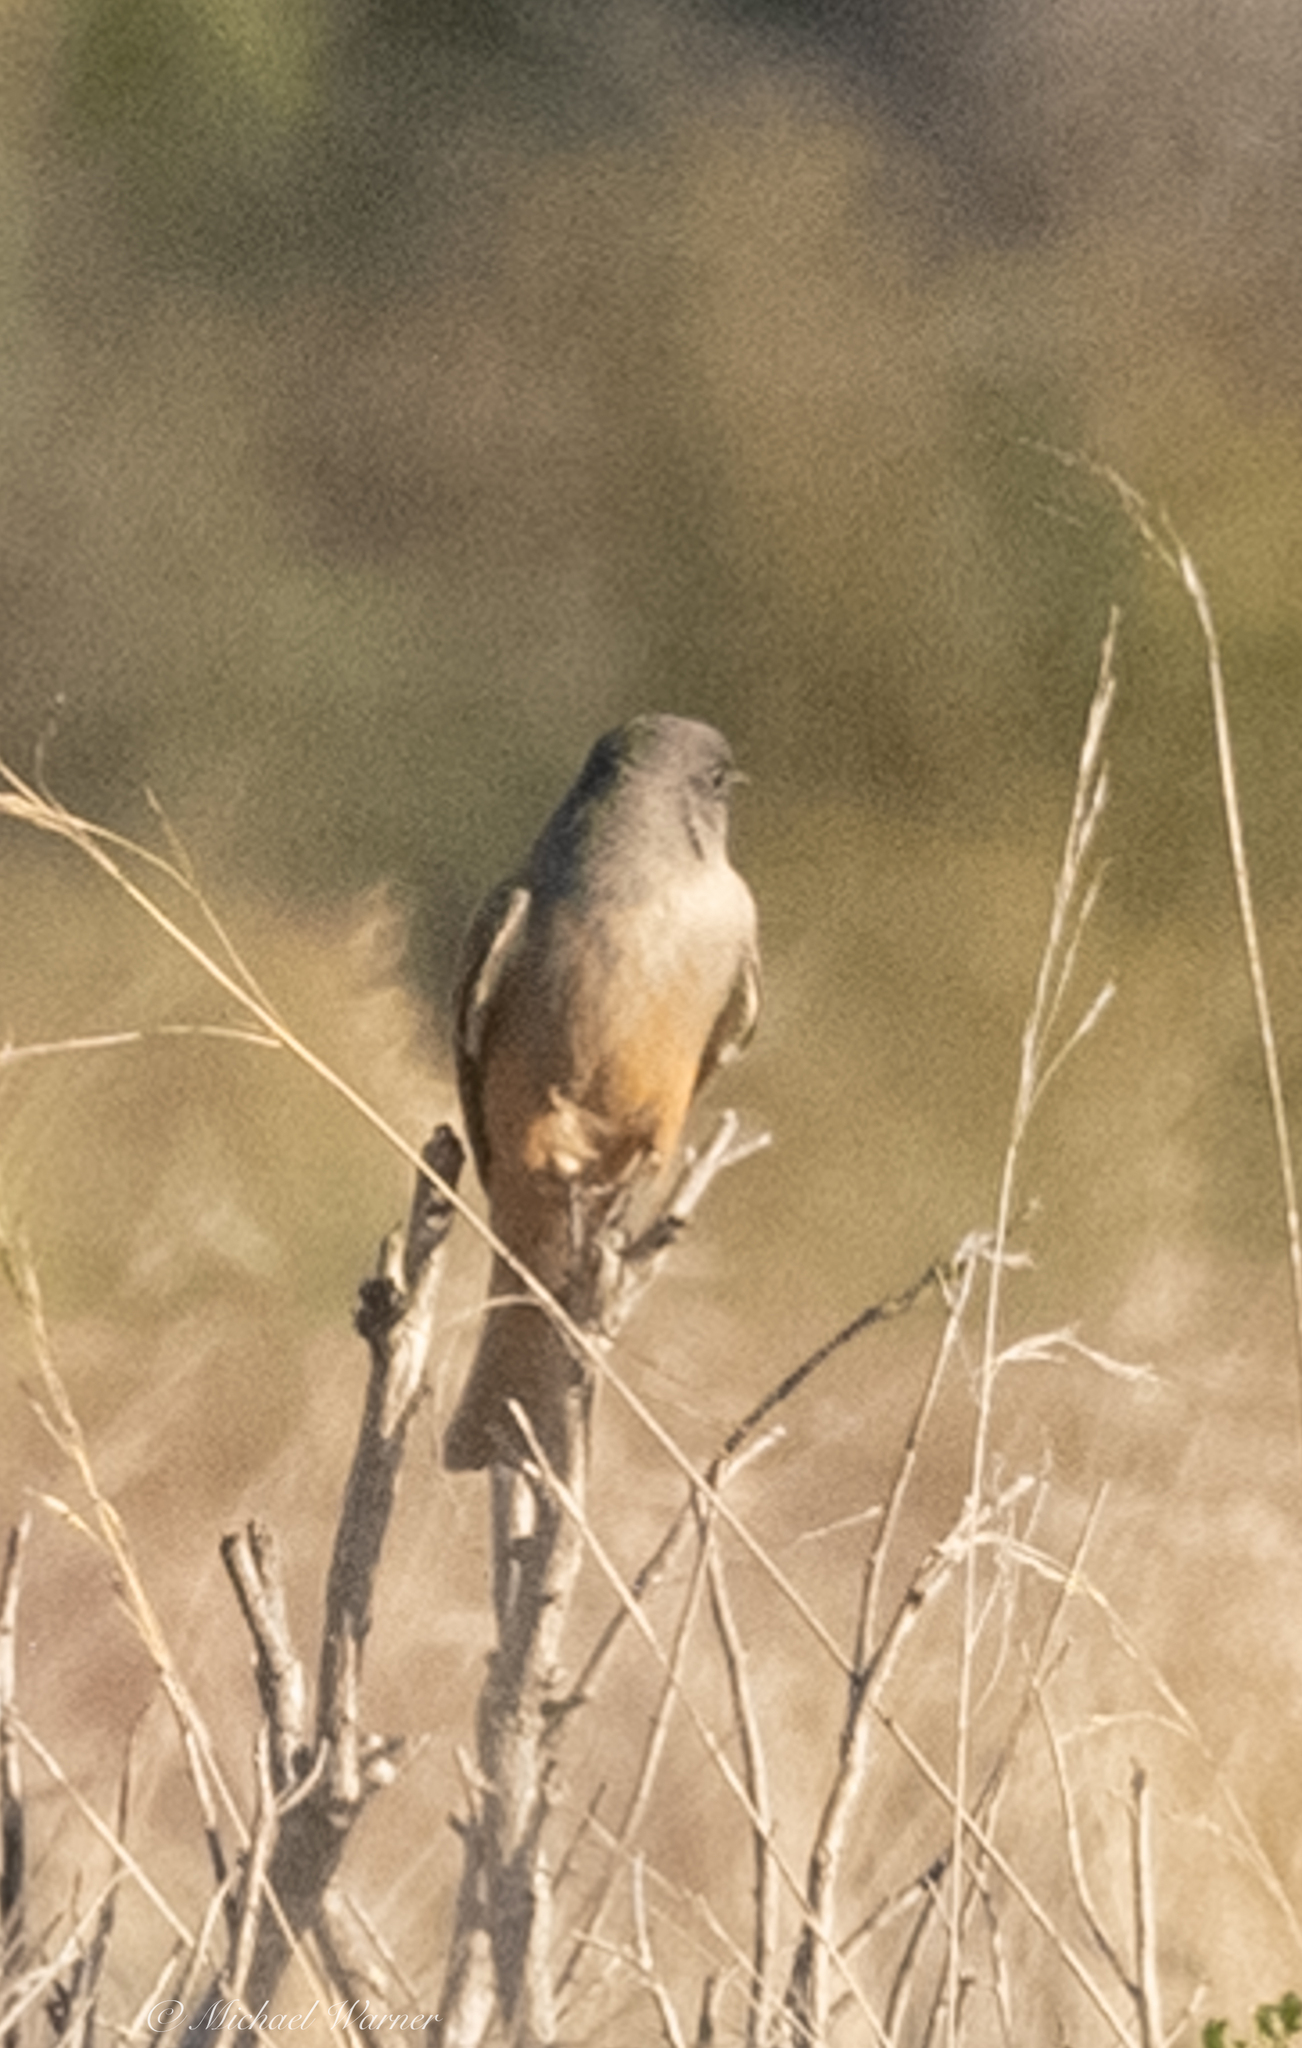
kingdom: Animalia
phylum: Chordata
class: Aves
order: Passeriformes
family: Tyrannidae
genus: Sayornis
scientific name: Sayornis saya
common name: Say's phoebe
